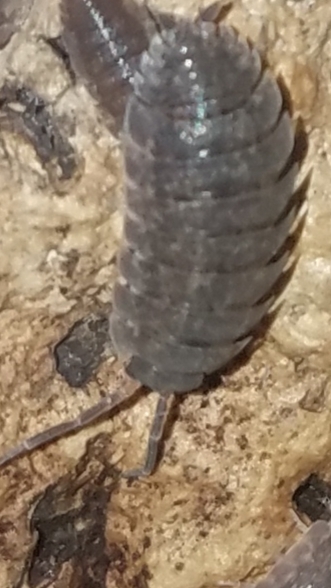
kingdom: Animalia
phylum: Arthropoda
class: Malacostraca
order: Isopoda
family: Porcellionidae
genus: Porcellio
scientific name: Porcellio scaber
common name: Common rough woodlouse
